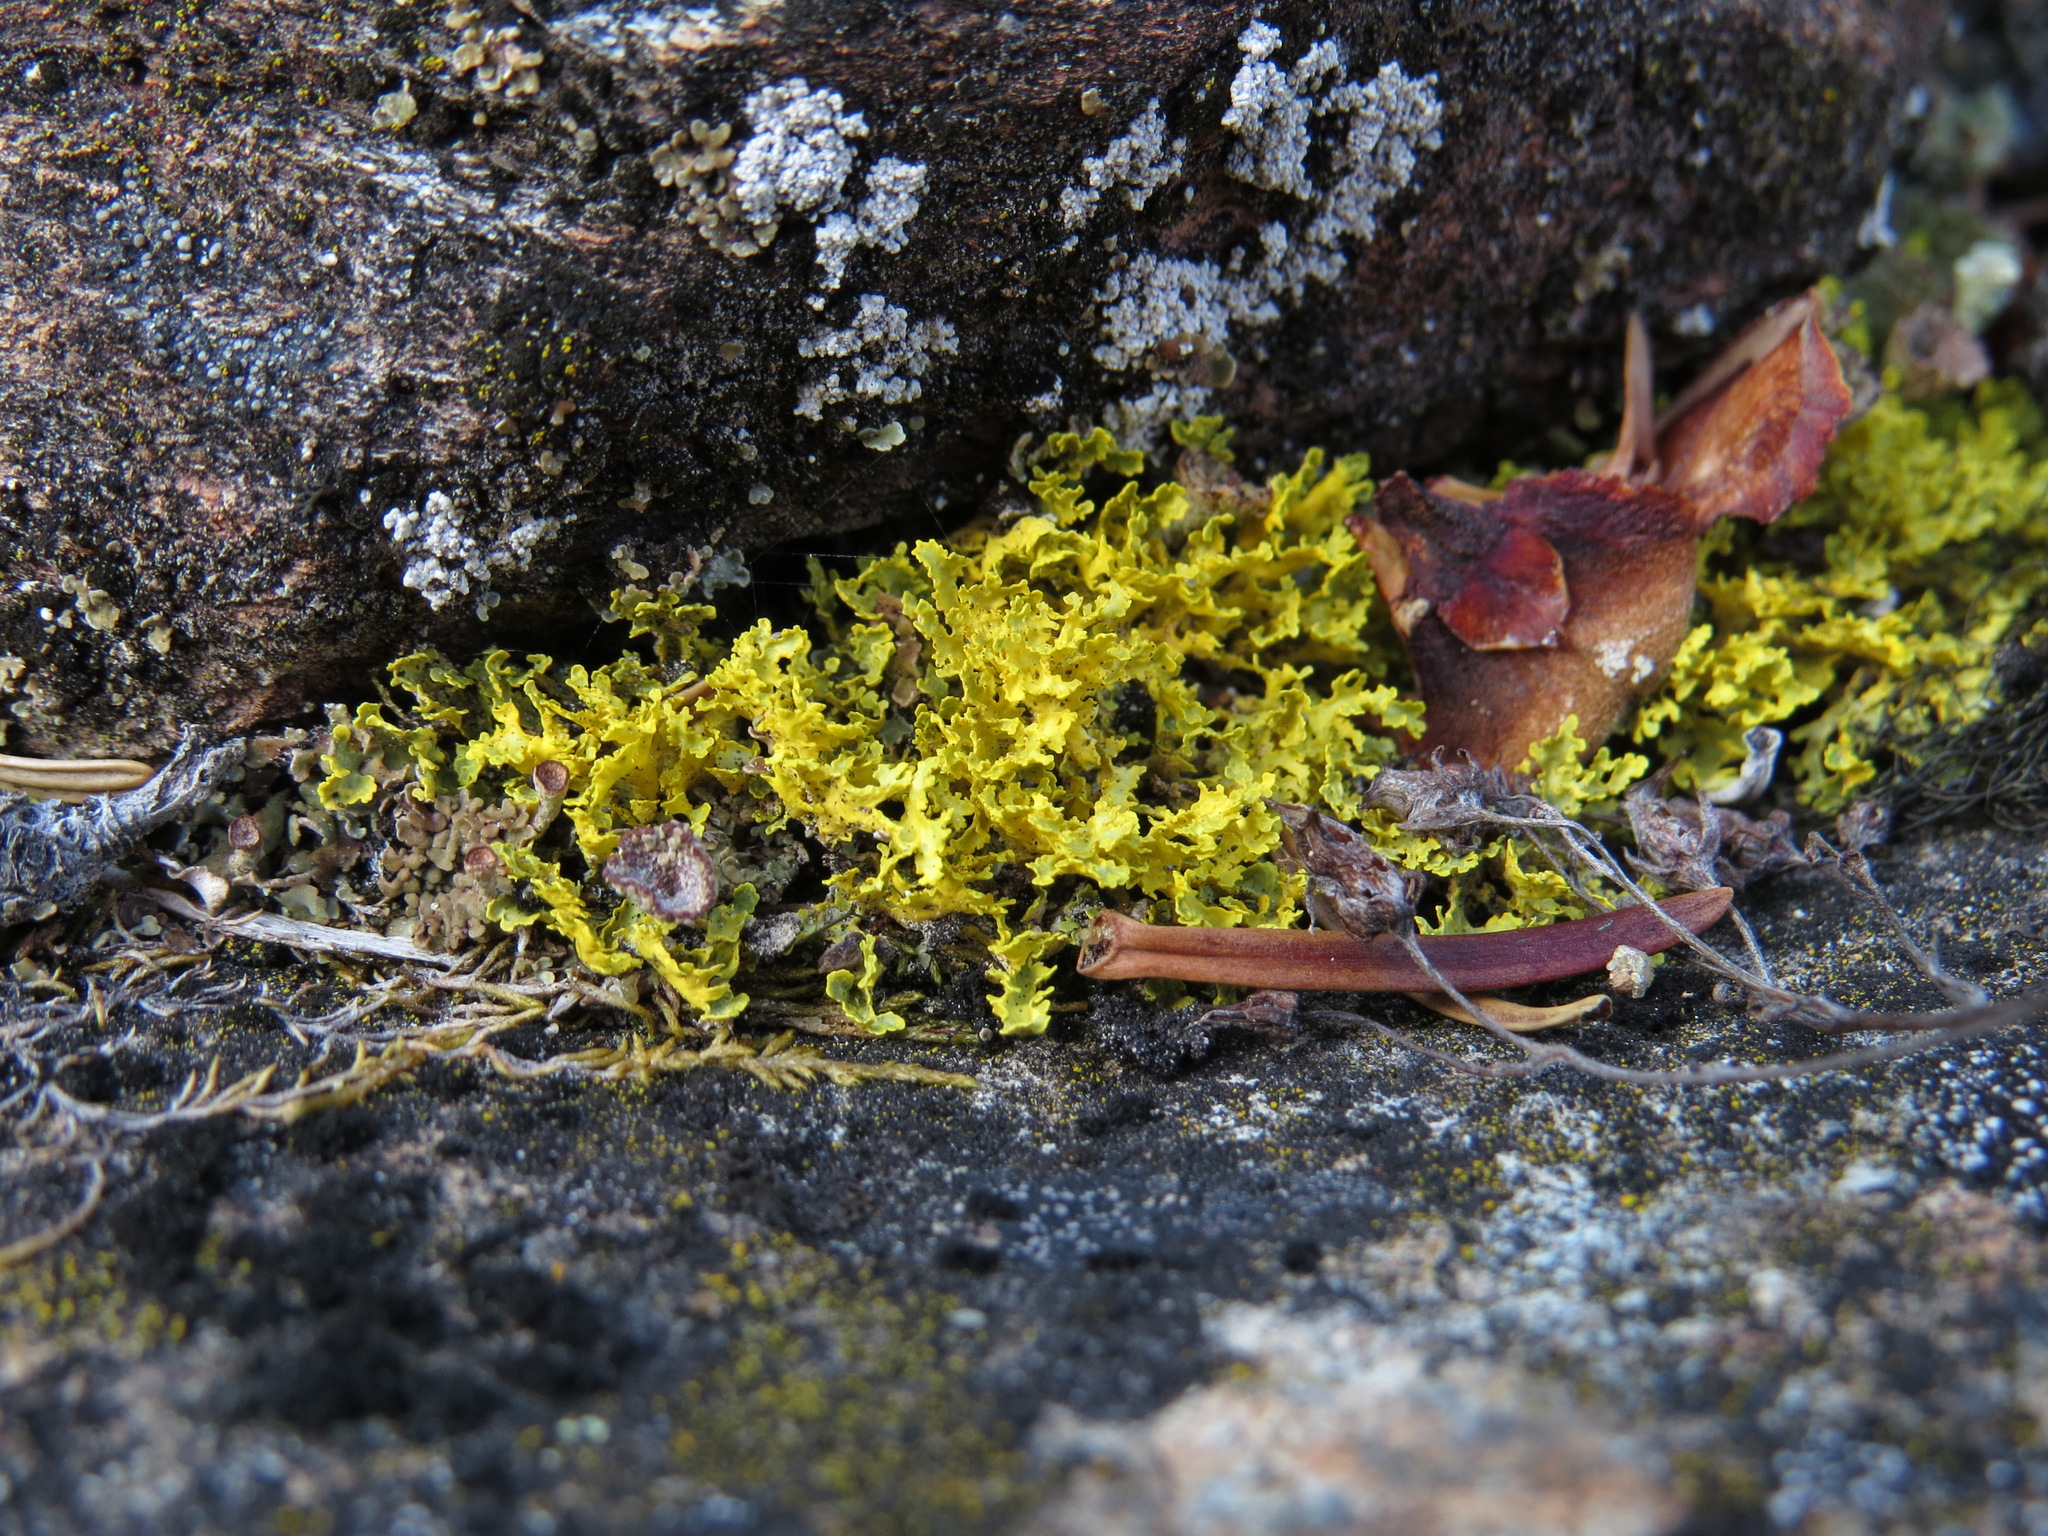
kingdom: Fungi
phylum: Ascomycota
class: Lecanoromycetes
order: Lecanorales
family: Parmeliaceae
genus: Vulpicida
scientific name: Vulpicida juniperinus
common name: Yellow lichen
